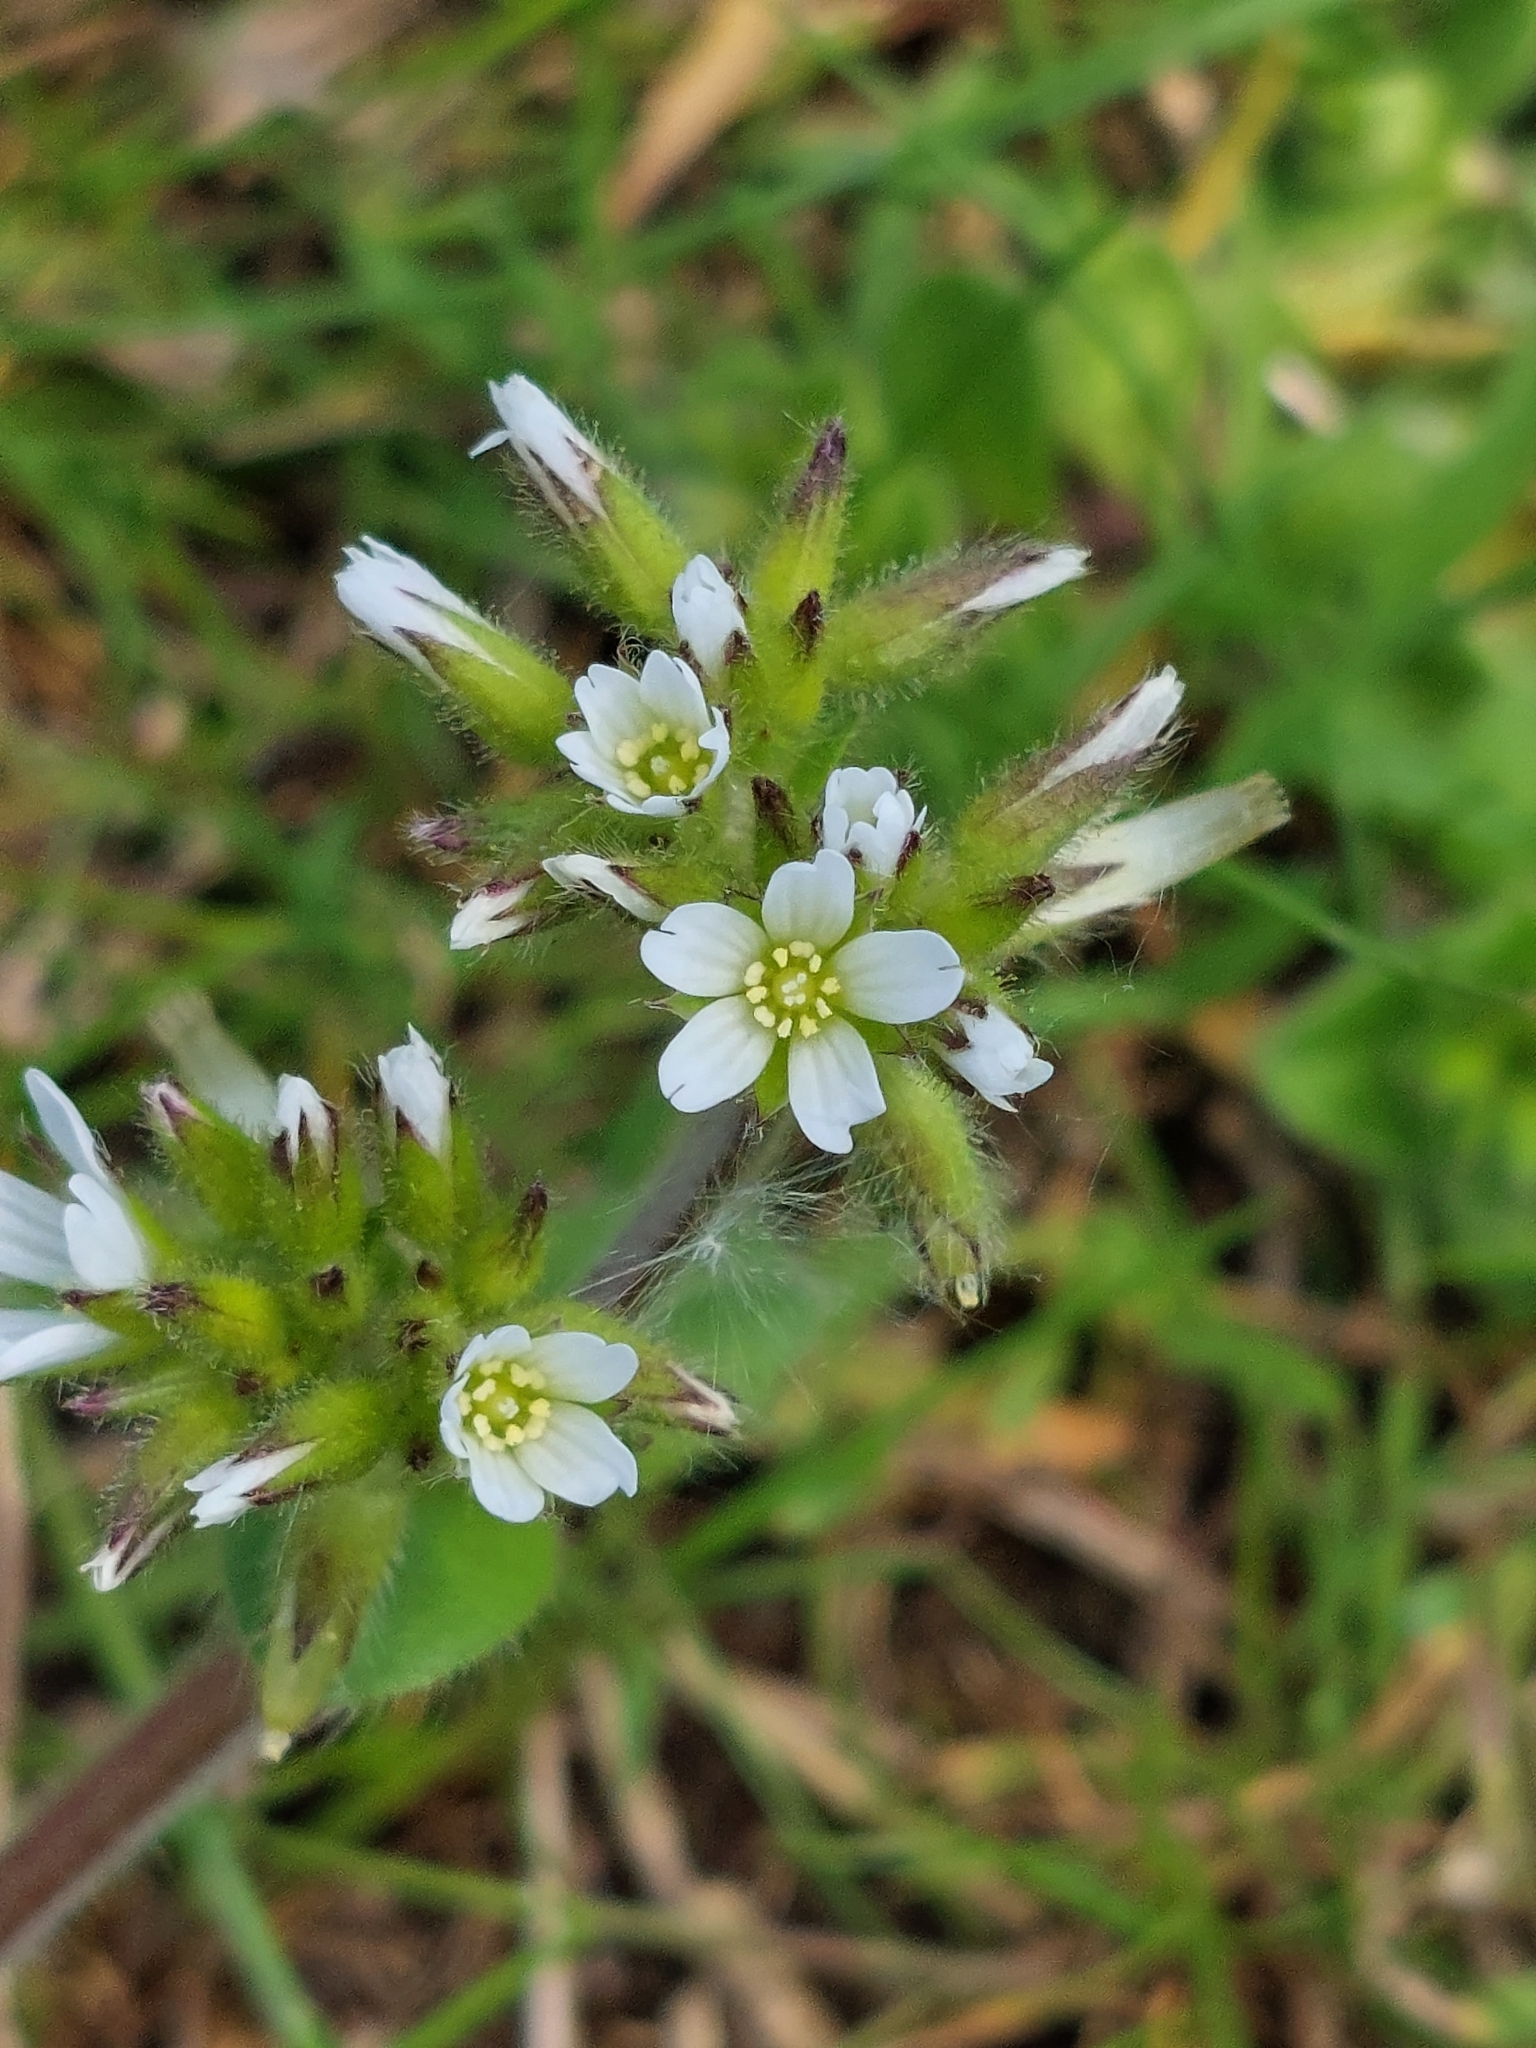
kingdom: Plantae
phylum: Tracheophyta
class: Magnoliopsida
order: Caryophyllales
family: Caryophyllaceae
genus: Cerastium
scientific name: Cerastium holosteoides
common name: Big chickweed
